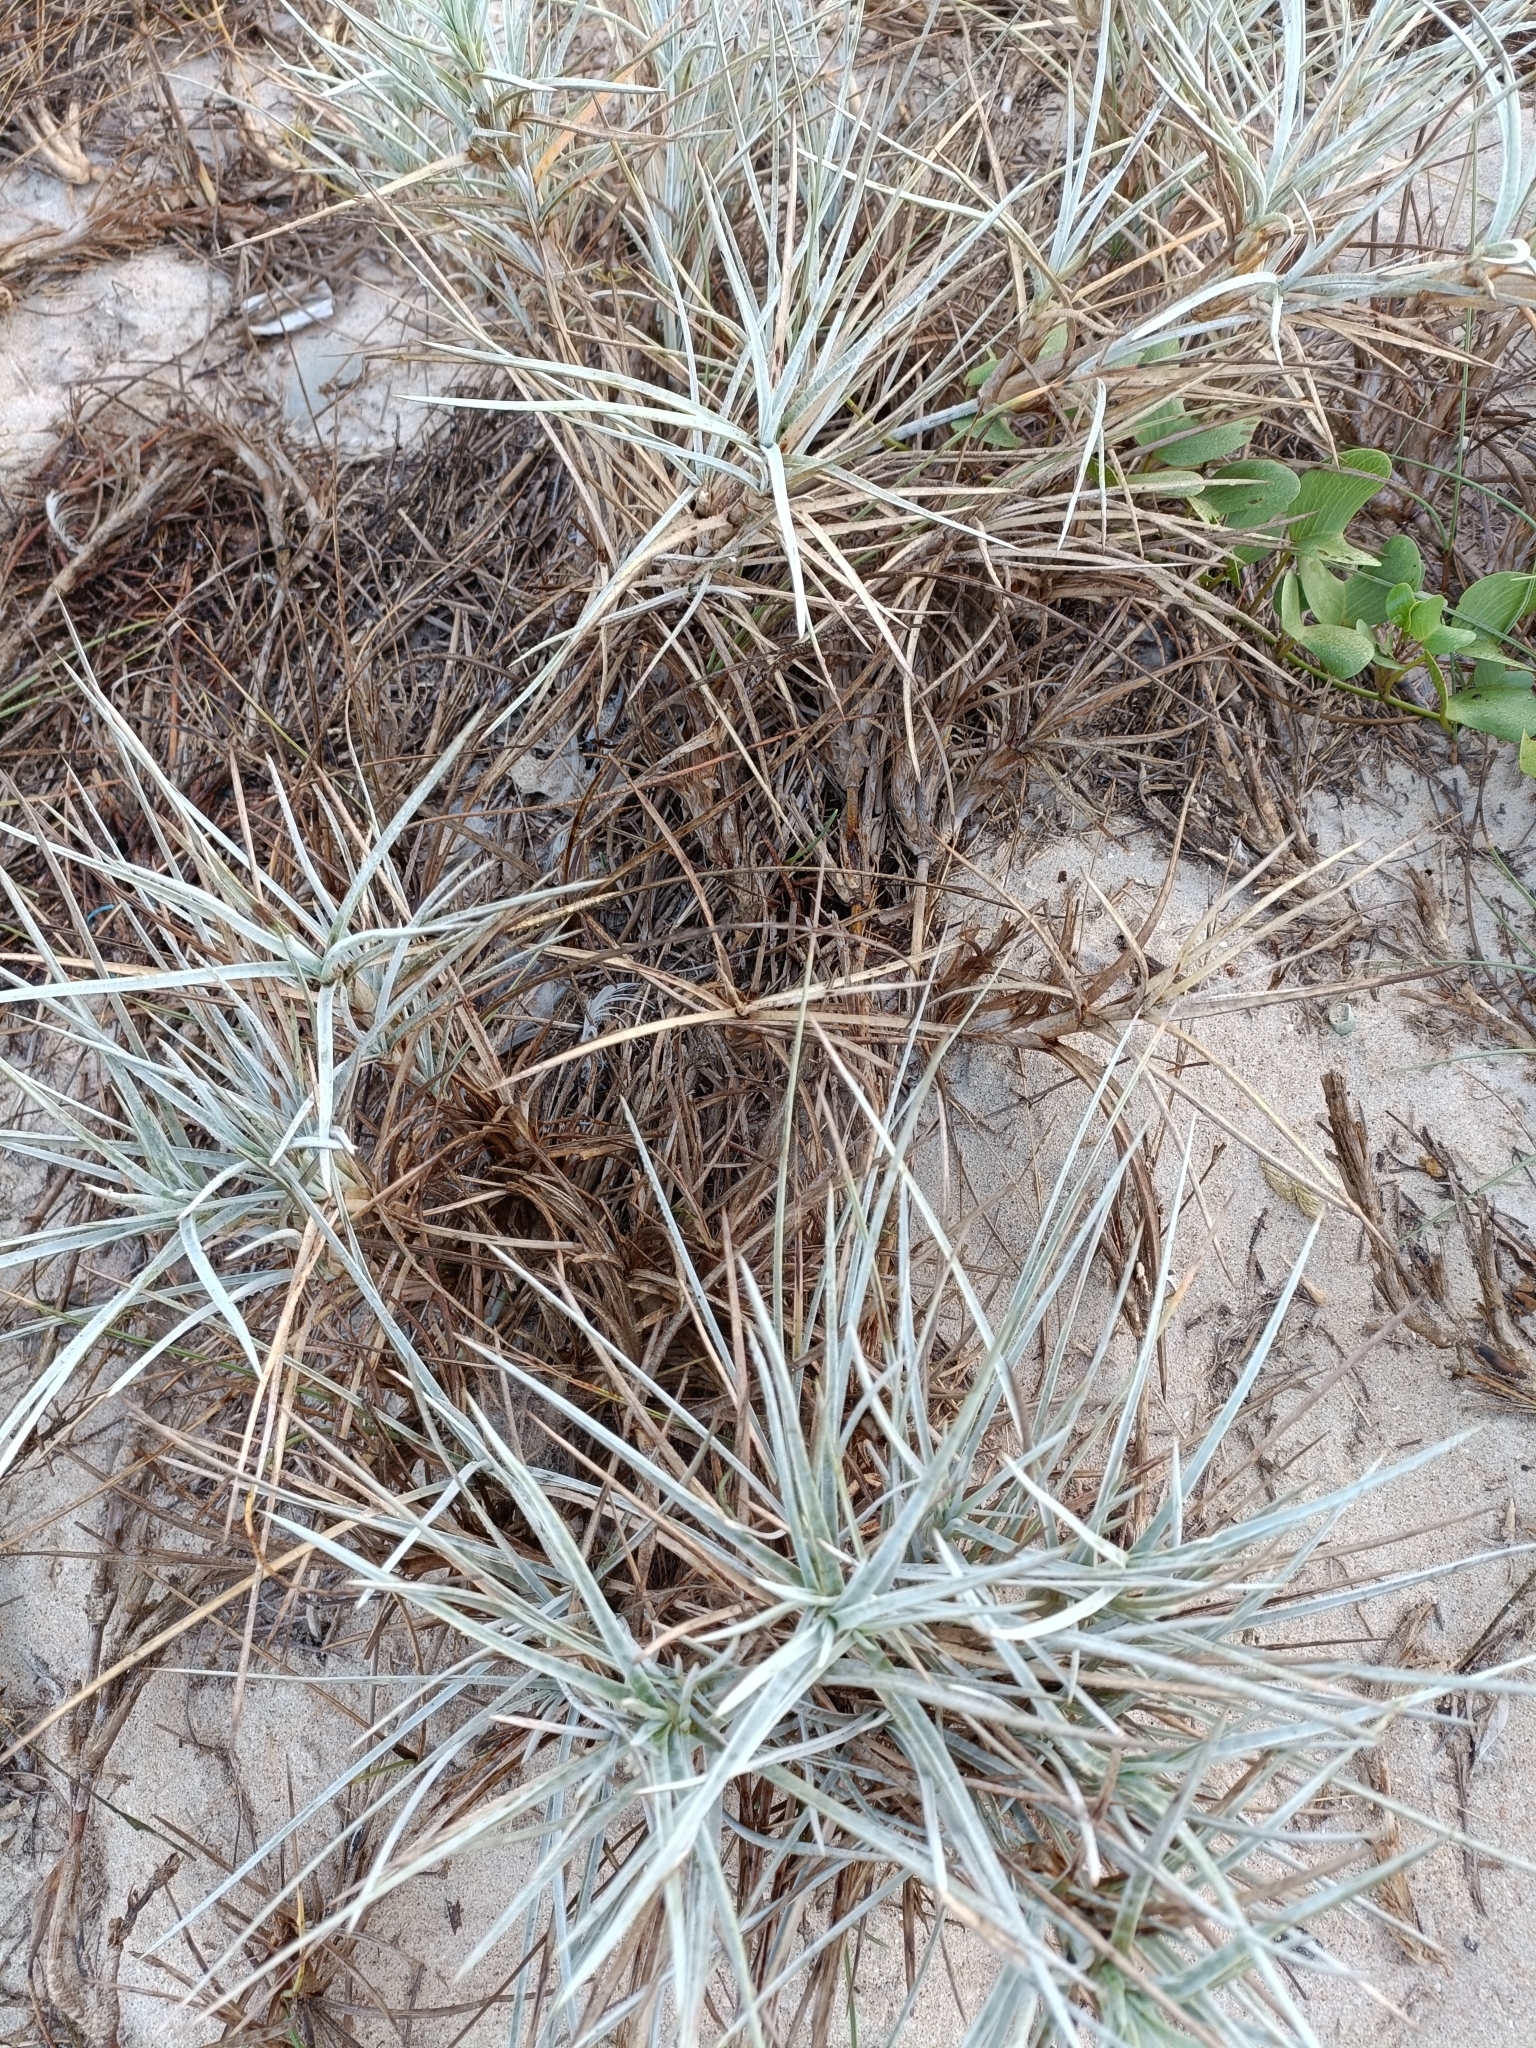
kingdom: Plantae
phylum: Tracheophyta
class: Liliopsida
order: Poales
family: Poaceae
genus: Spinifex
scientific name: Spinifex littoreus
